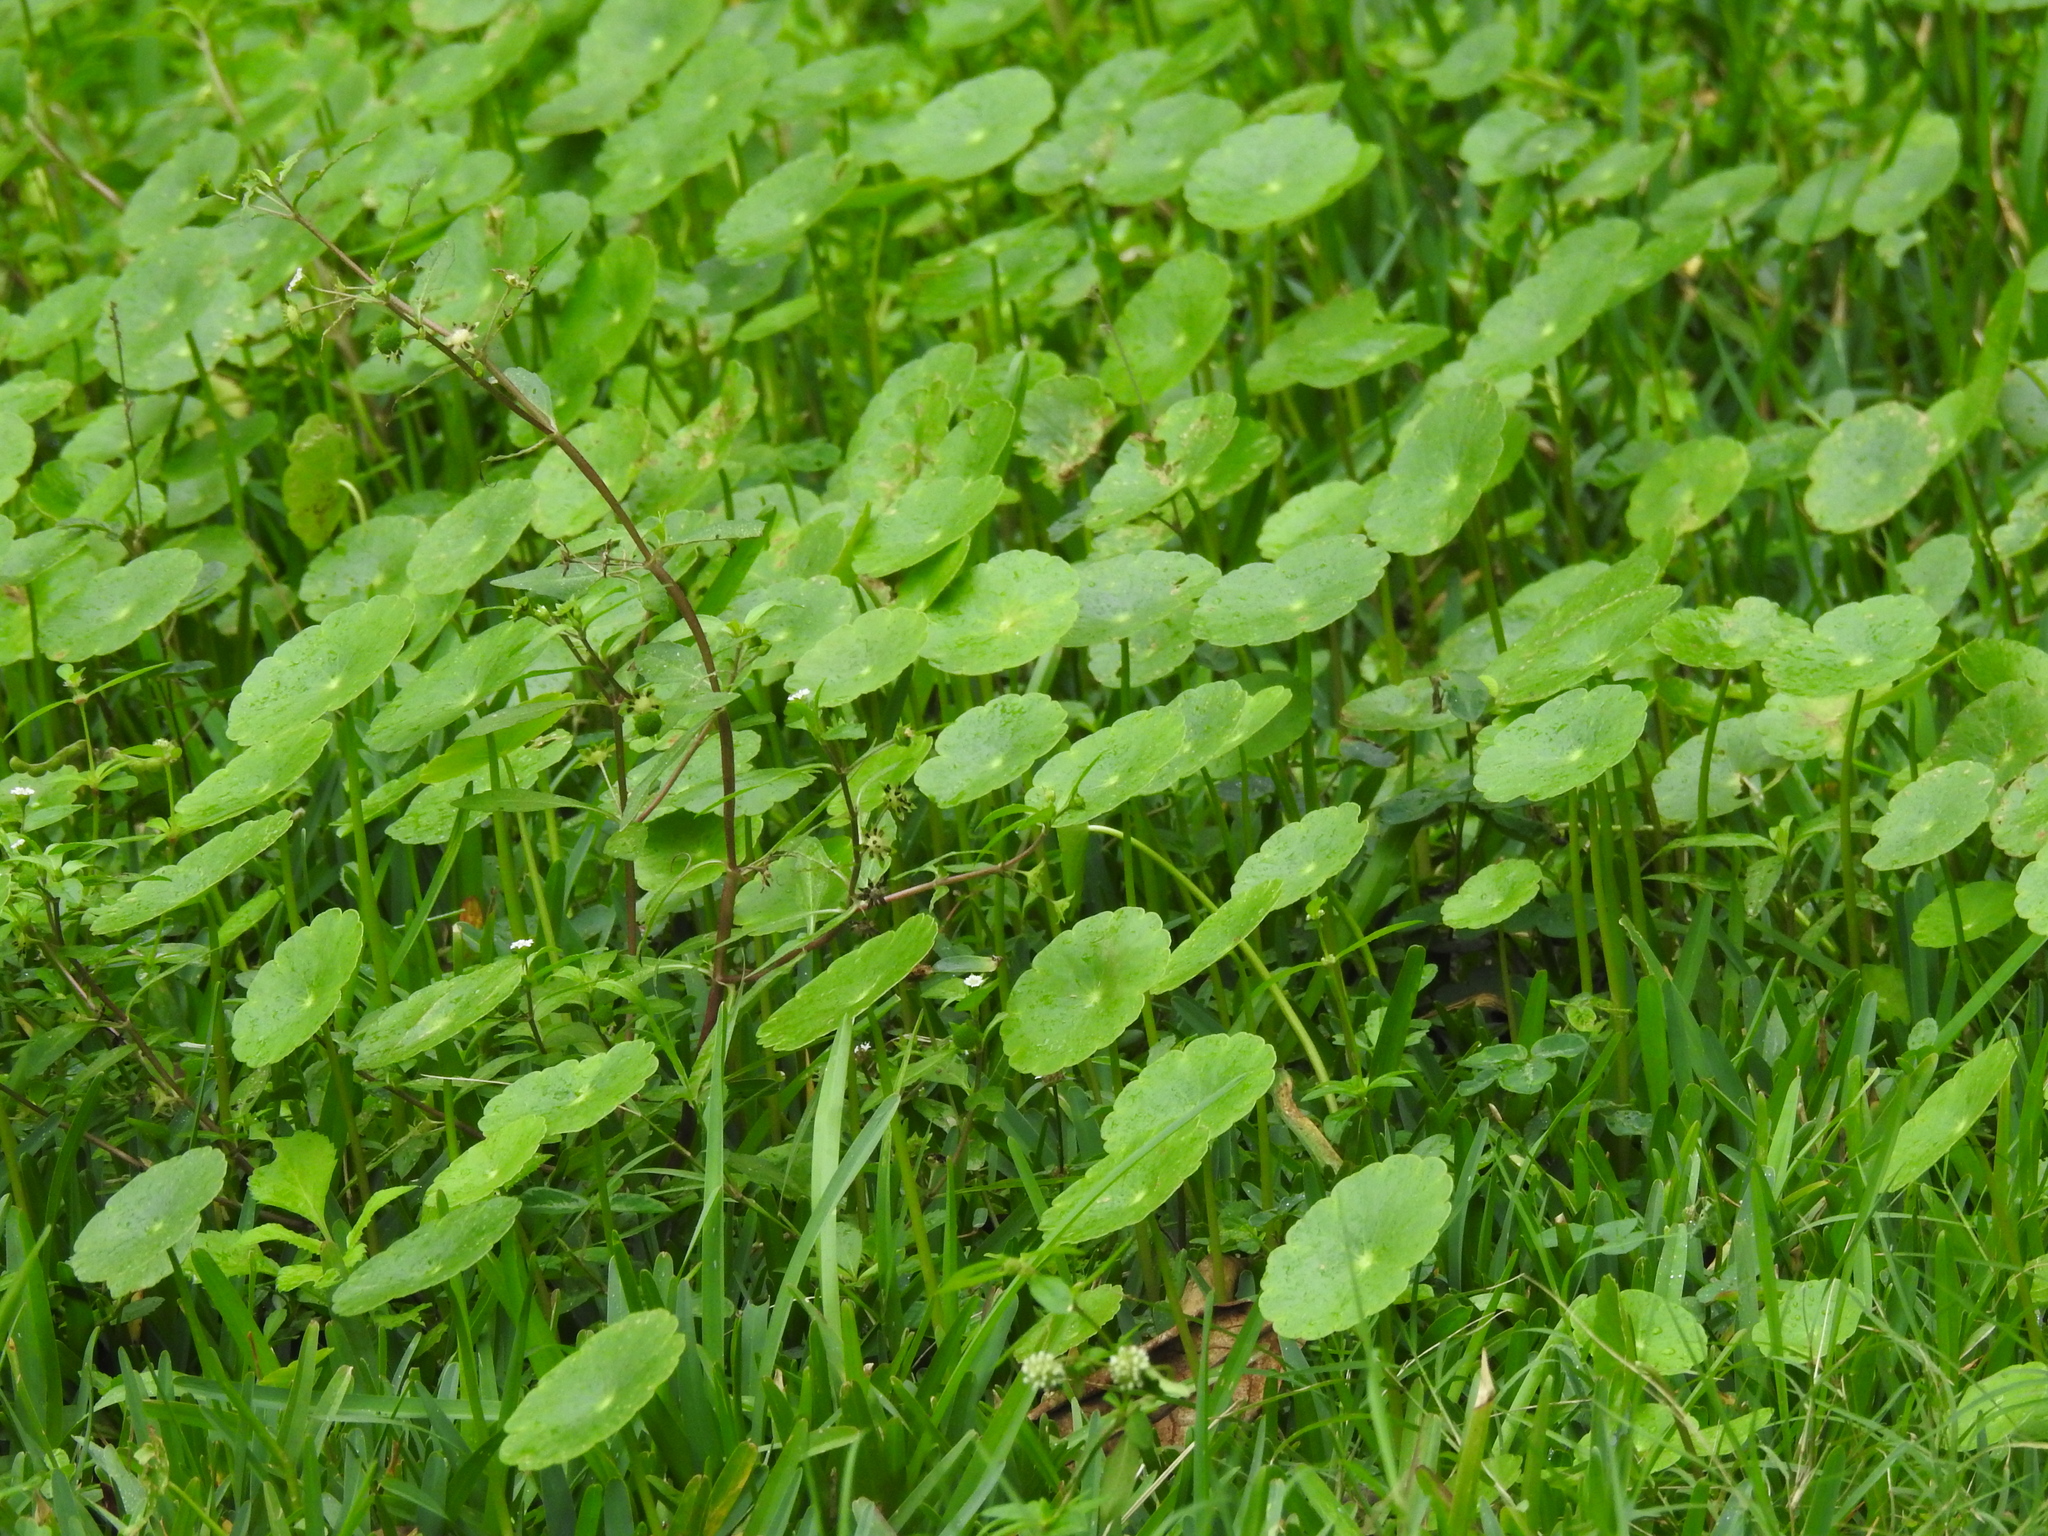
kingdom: Plantae
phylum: Tracheophyta
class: Magnoliopsida
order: Apiales
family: Araliaceae
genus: Hydrocotyle
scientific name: Hydrocotyle umbellata
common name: Water pennywort
